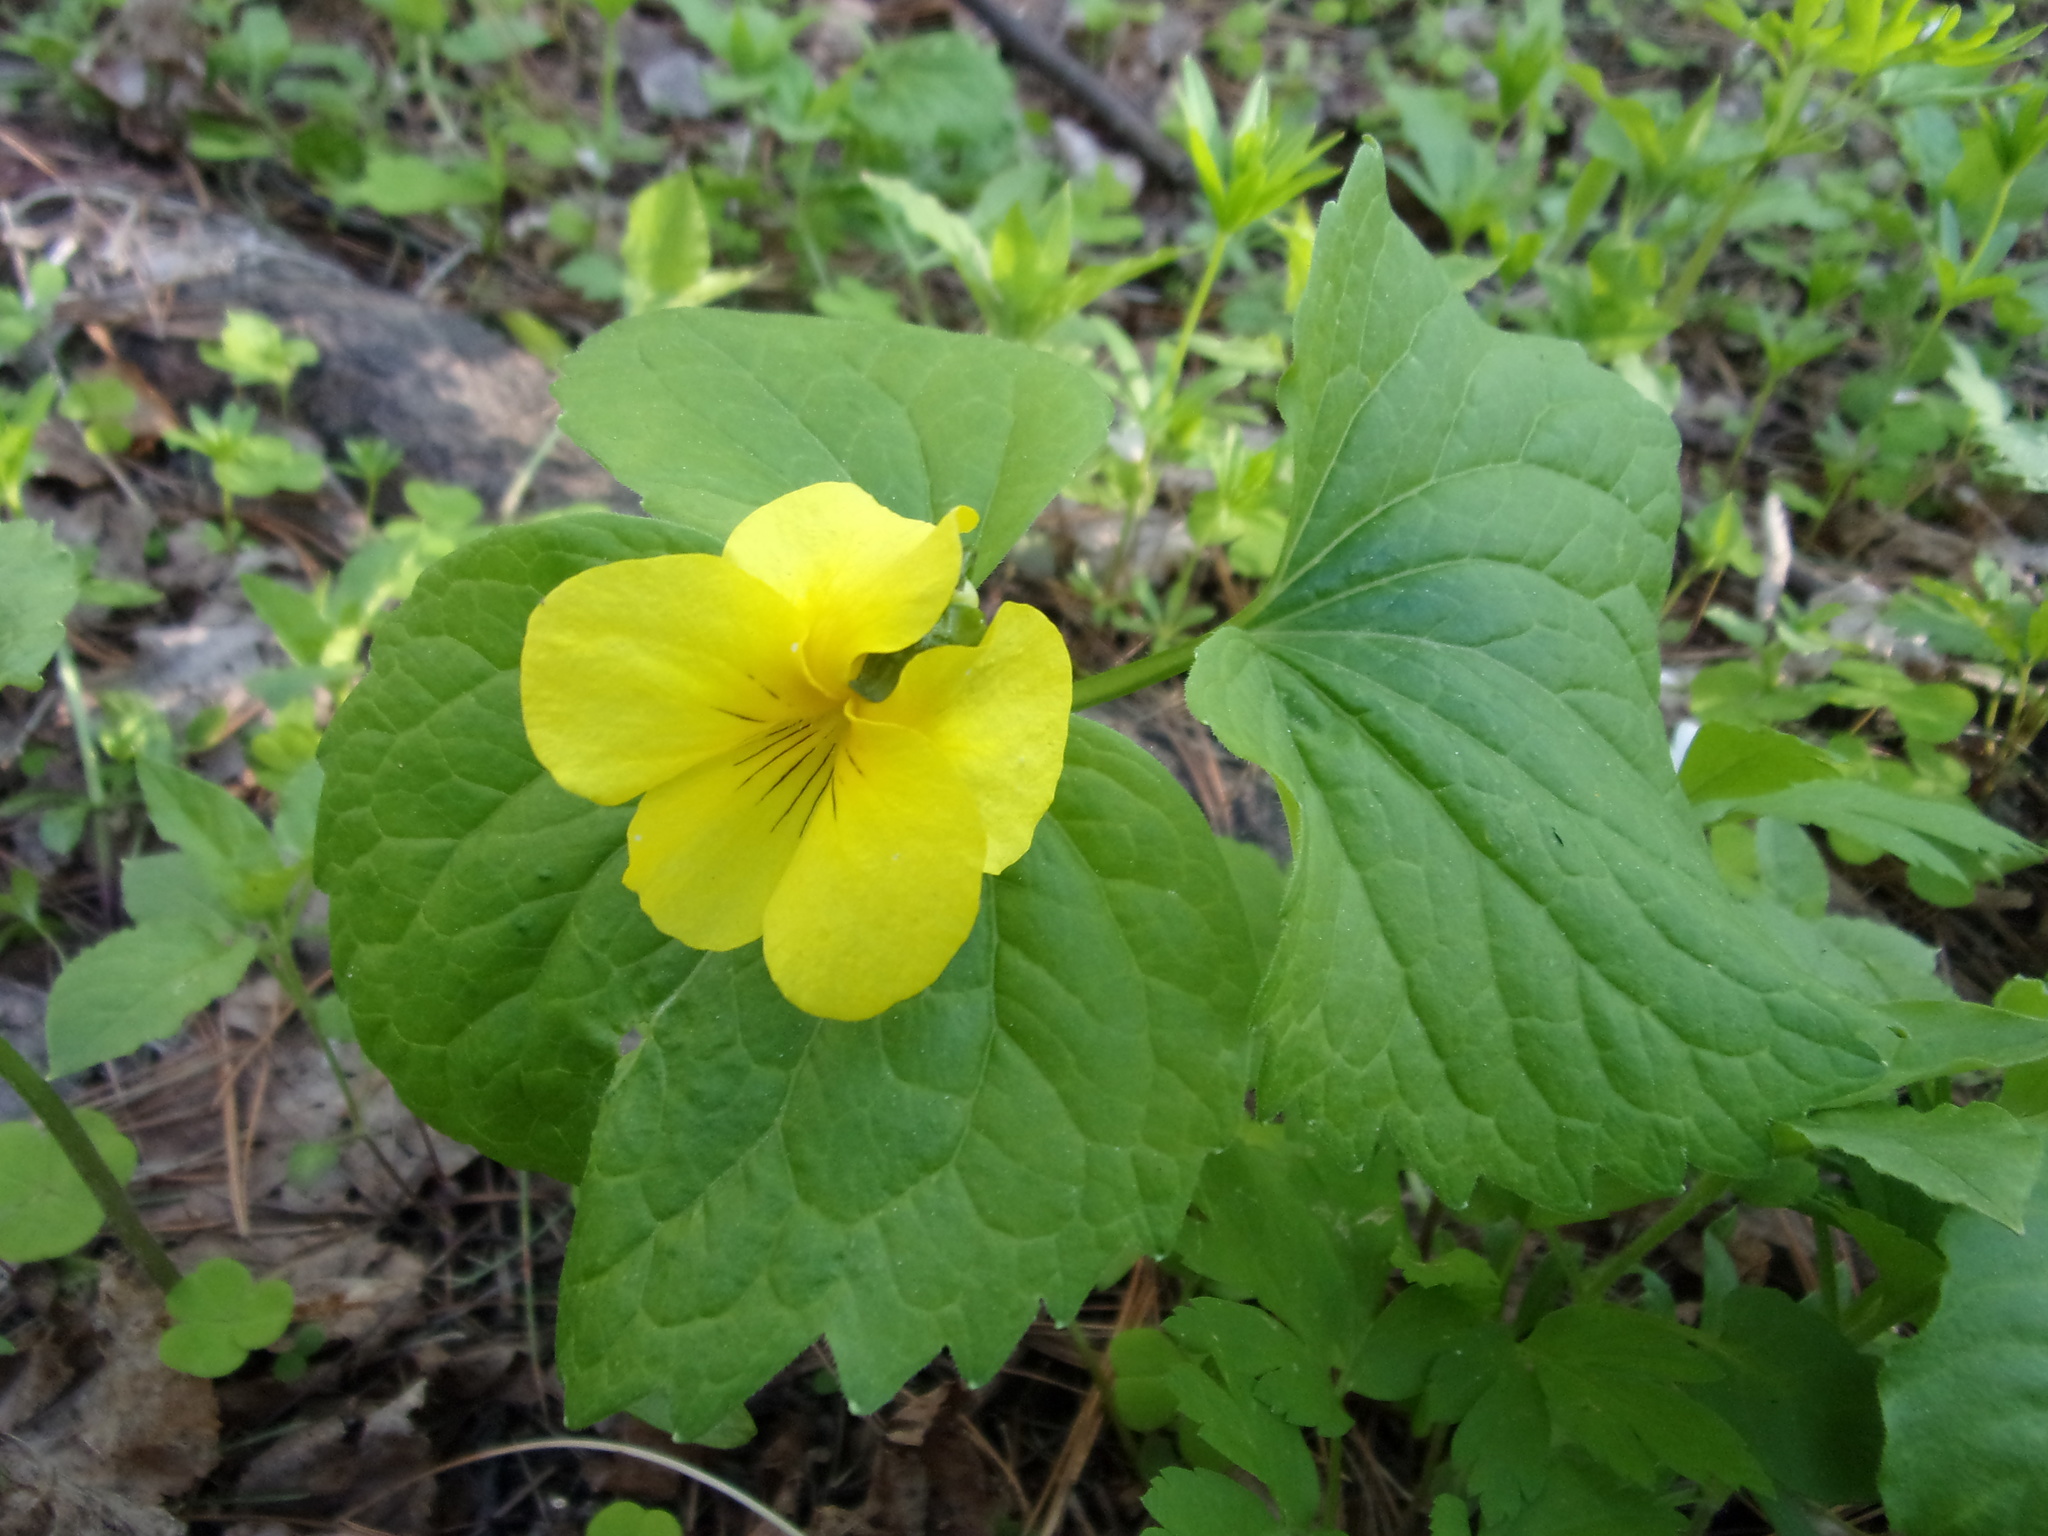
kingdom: Plantae
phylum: Tracheophyta
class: Magnoliopsida
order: Malpighiales
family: Violaceae
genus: Viola
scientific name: Viola uniflora
